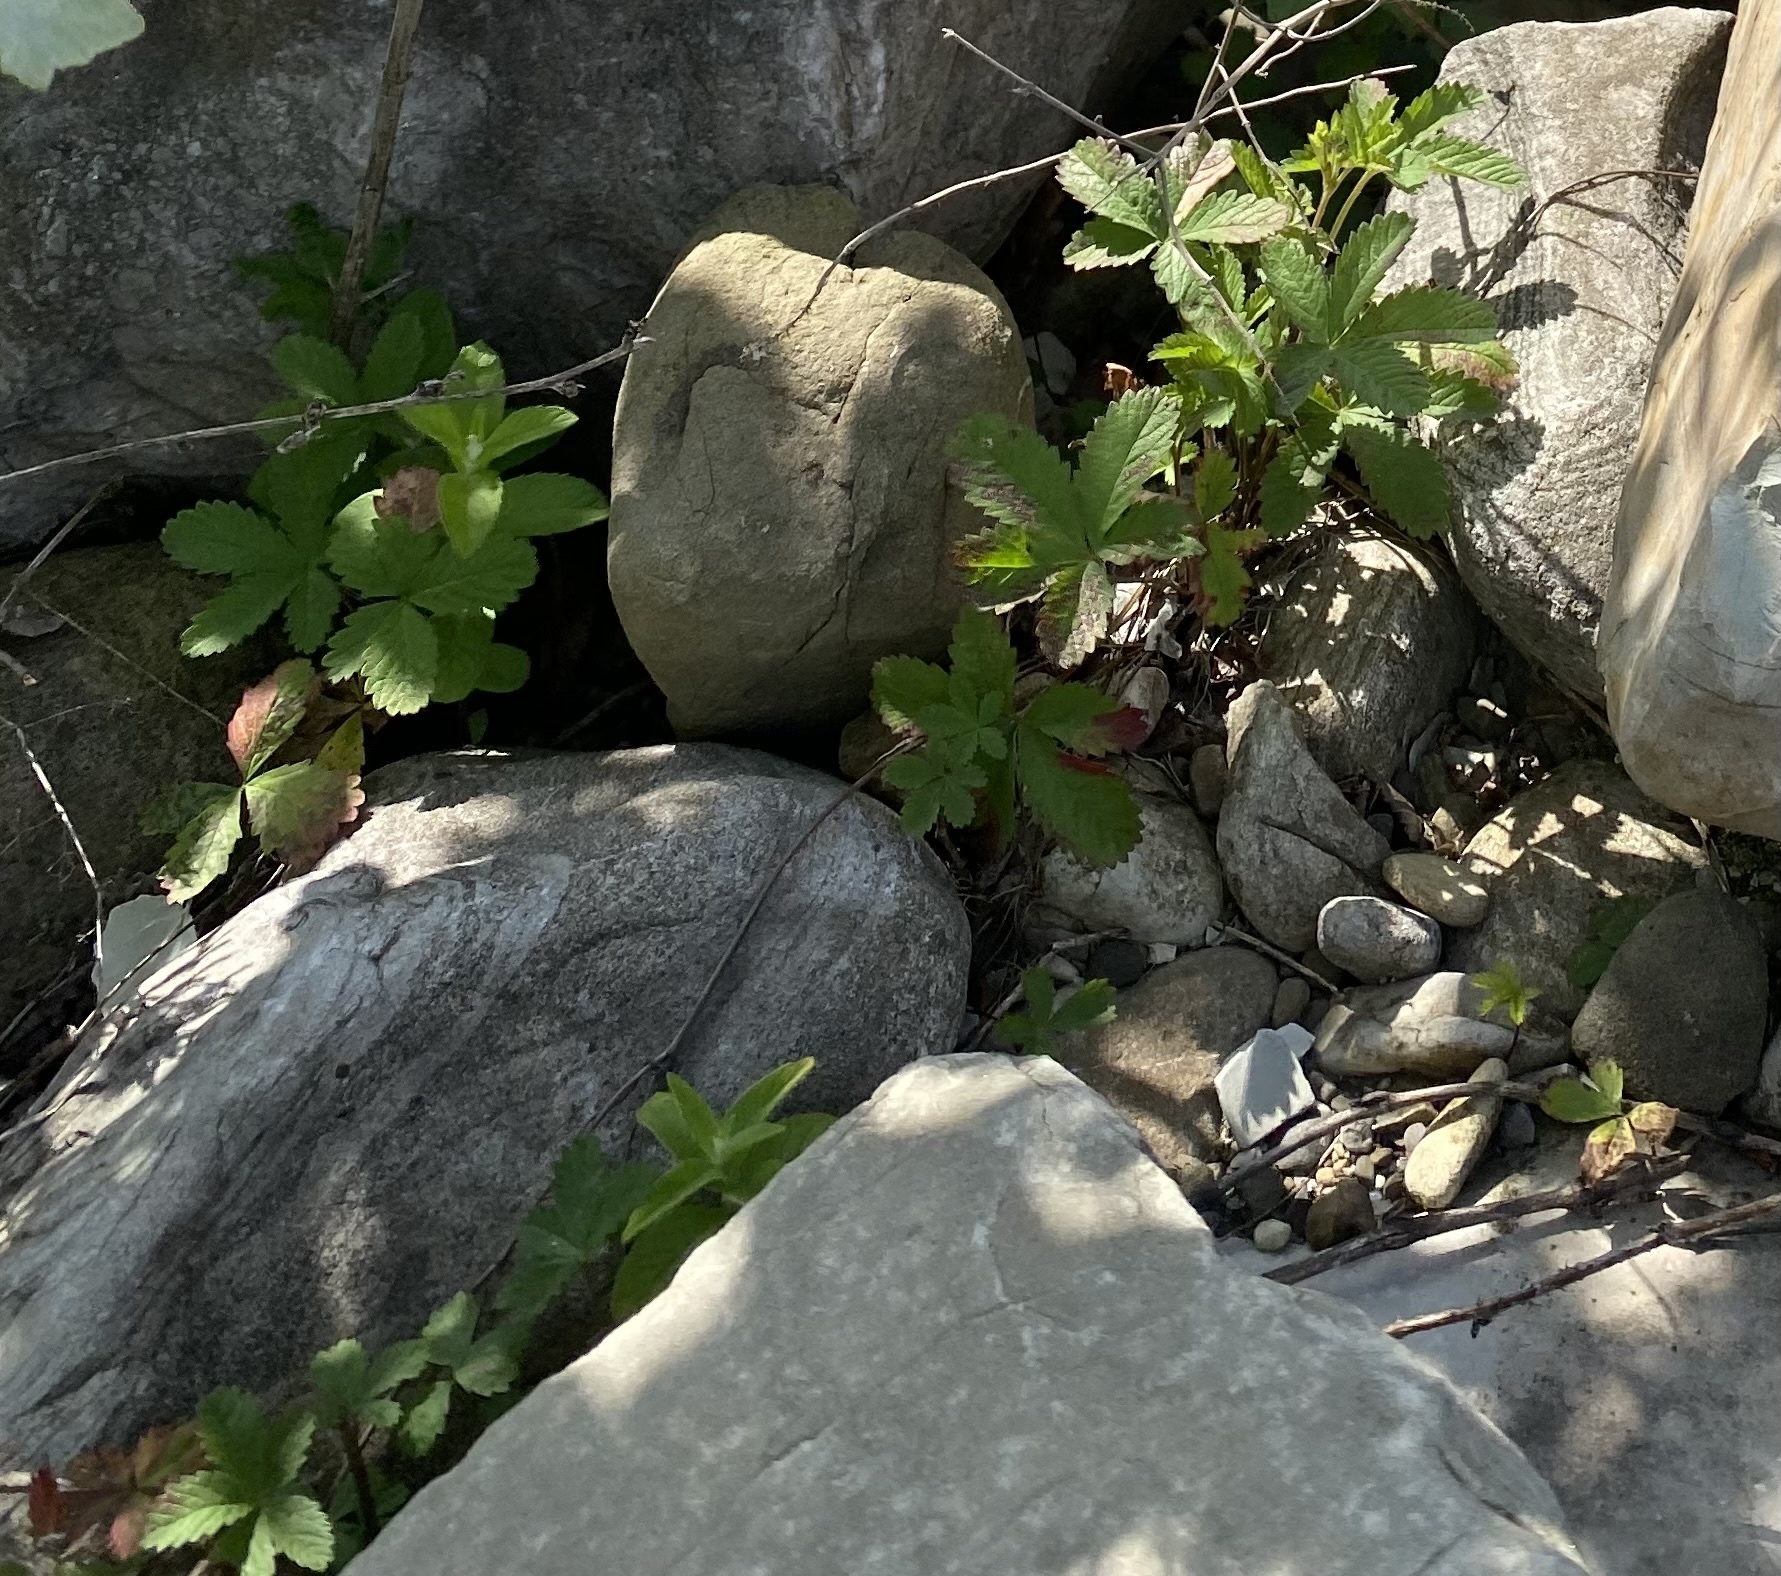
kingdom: Plantae
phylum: Tracheophyta
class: Magnoliopsida
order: Rosales
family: Rosaceae
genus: Potentilla
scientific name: Potentilla reptans
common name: Creeping cinquefoil
